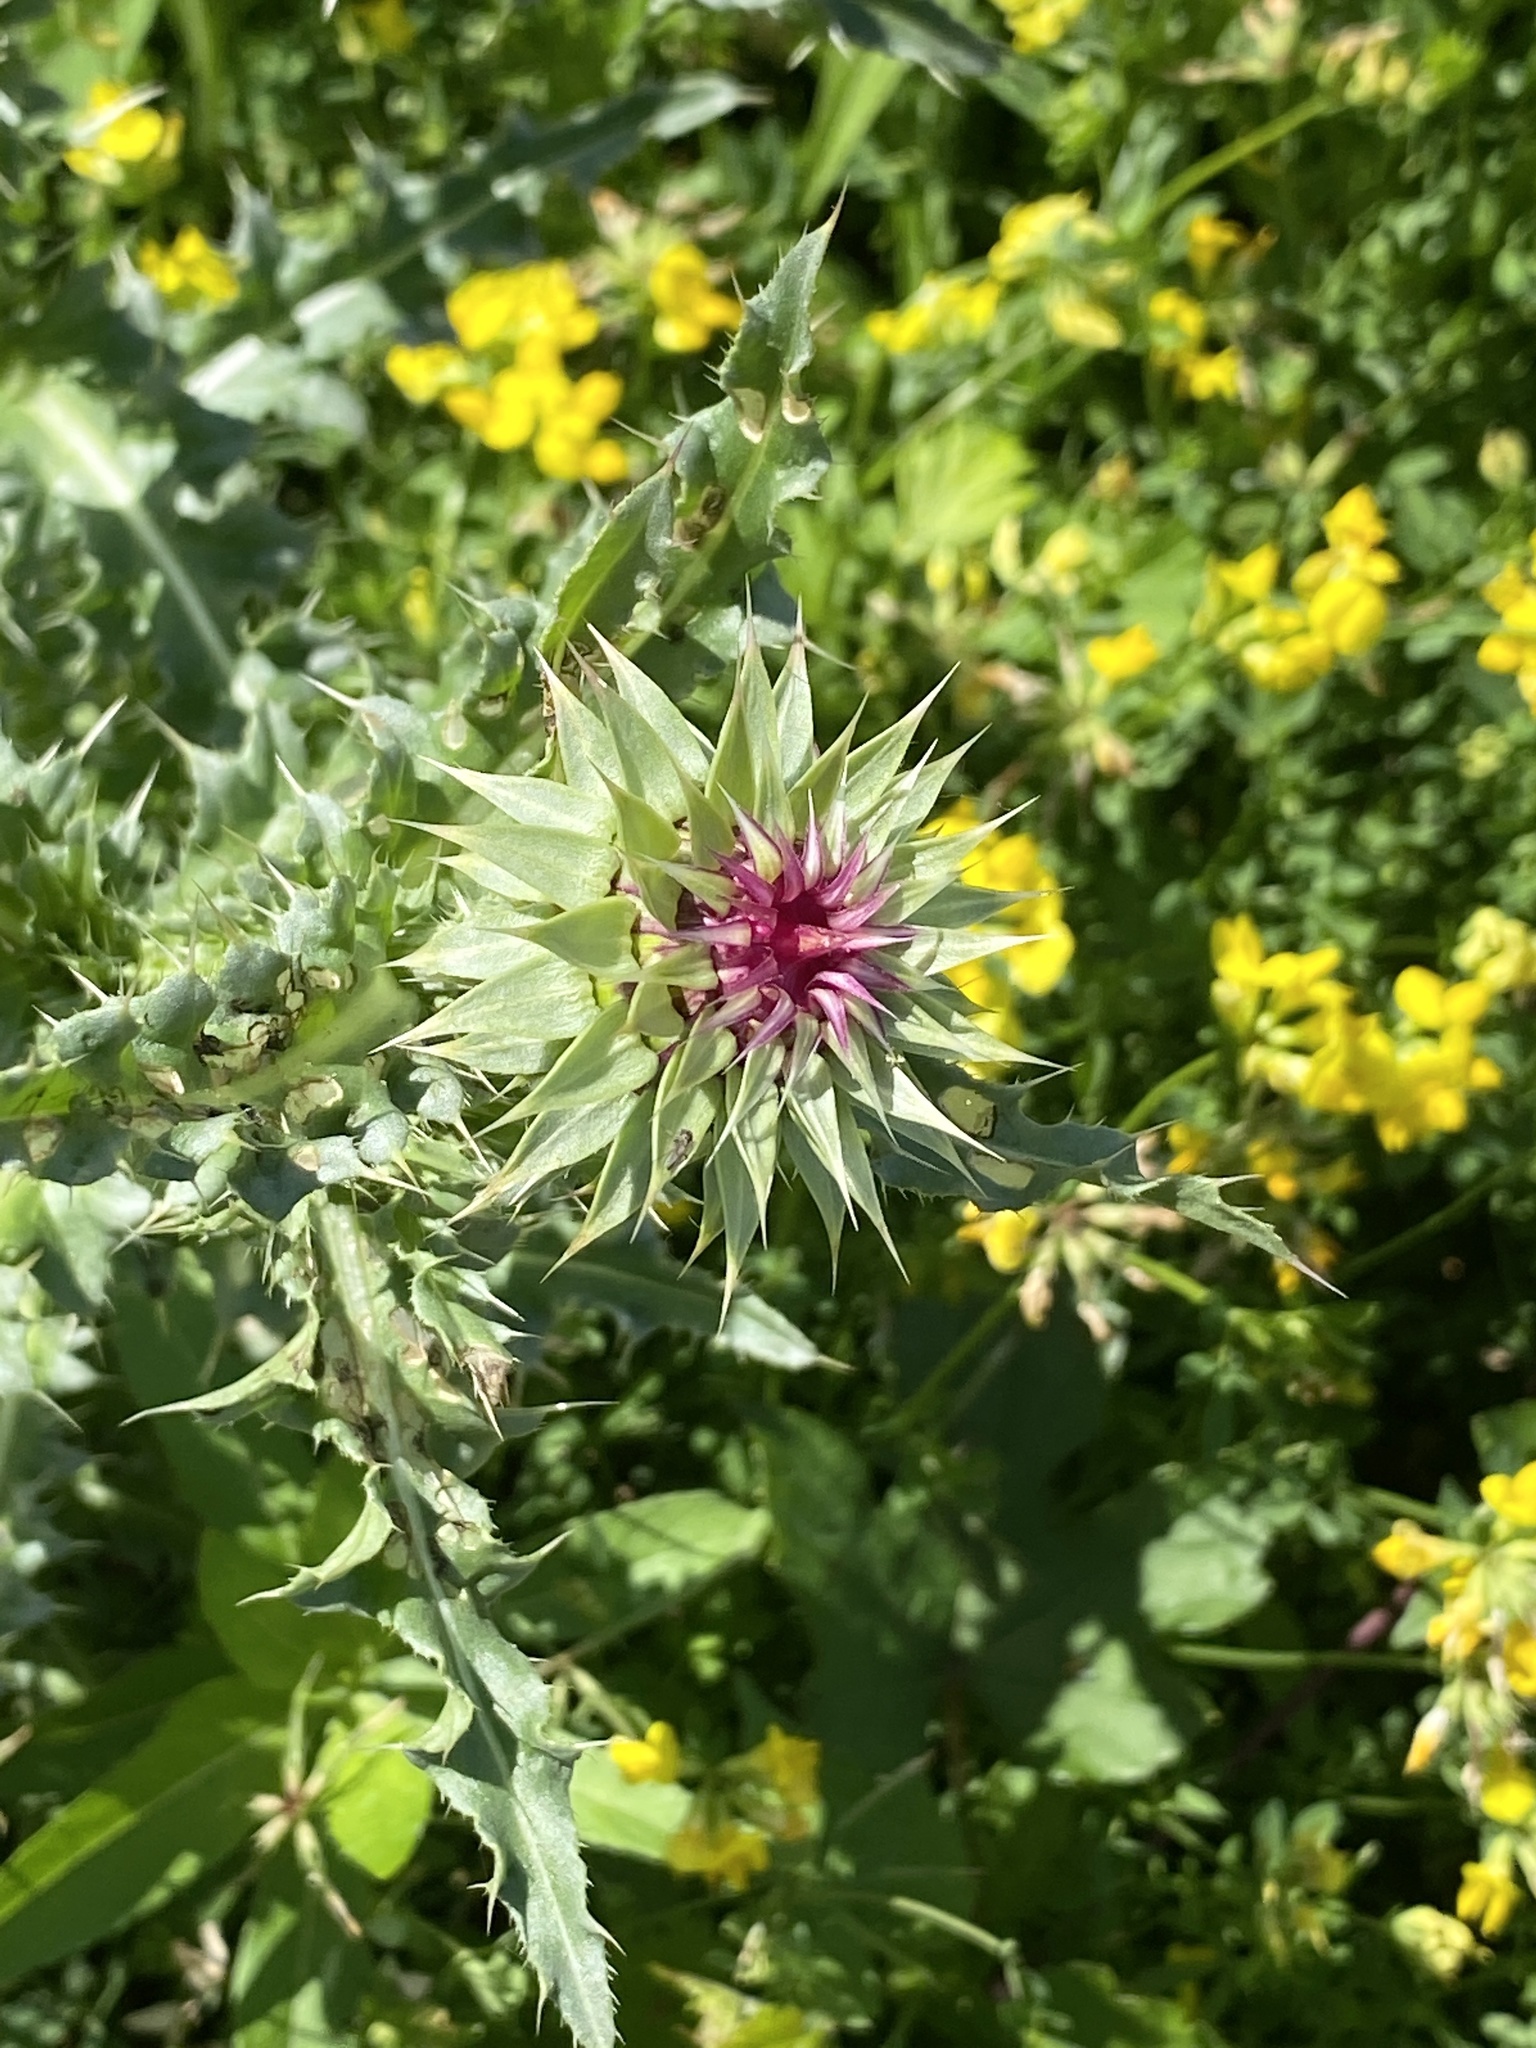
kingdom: Plantae
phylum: Tracheophyta
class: Magnoliopsida
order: Asterales
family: Asteraceae
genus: Carduus
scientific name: Carduus nutans
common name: Musk thistle
